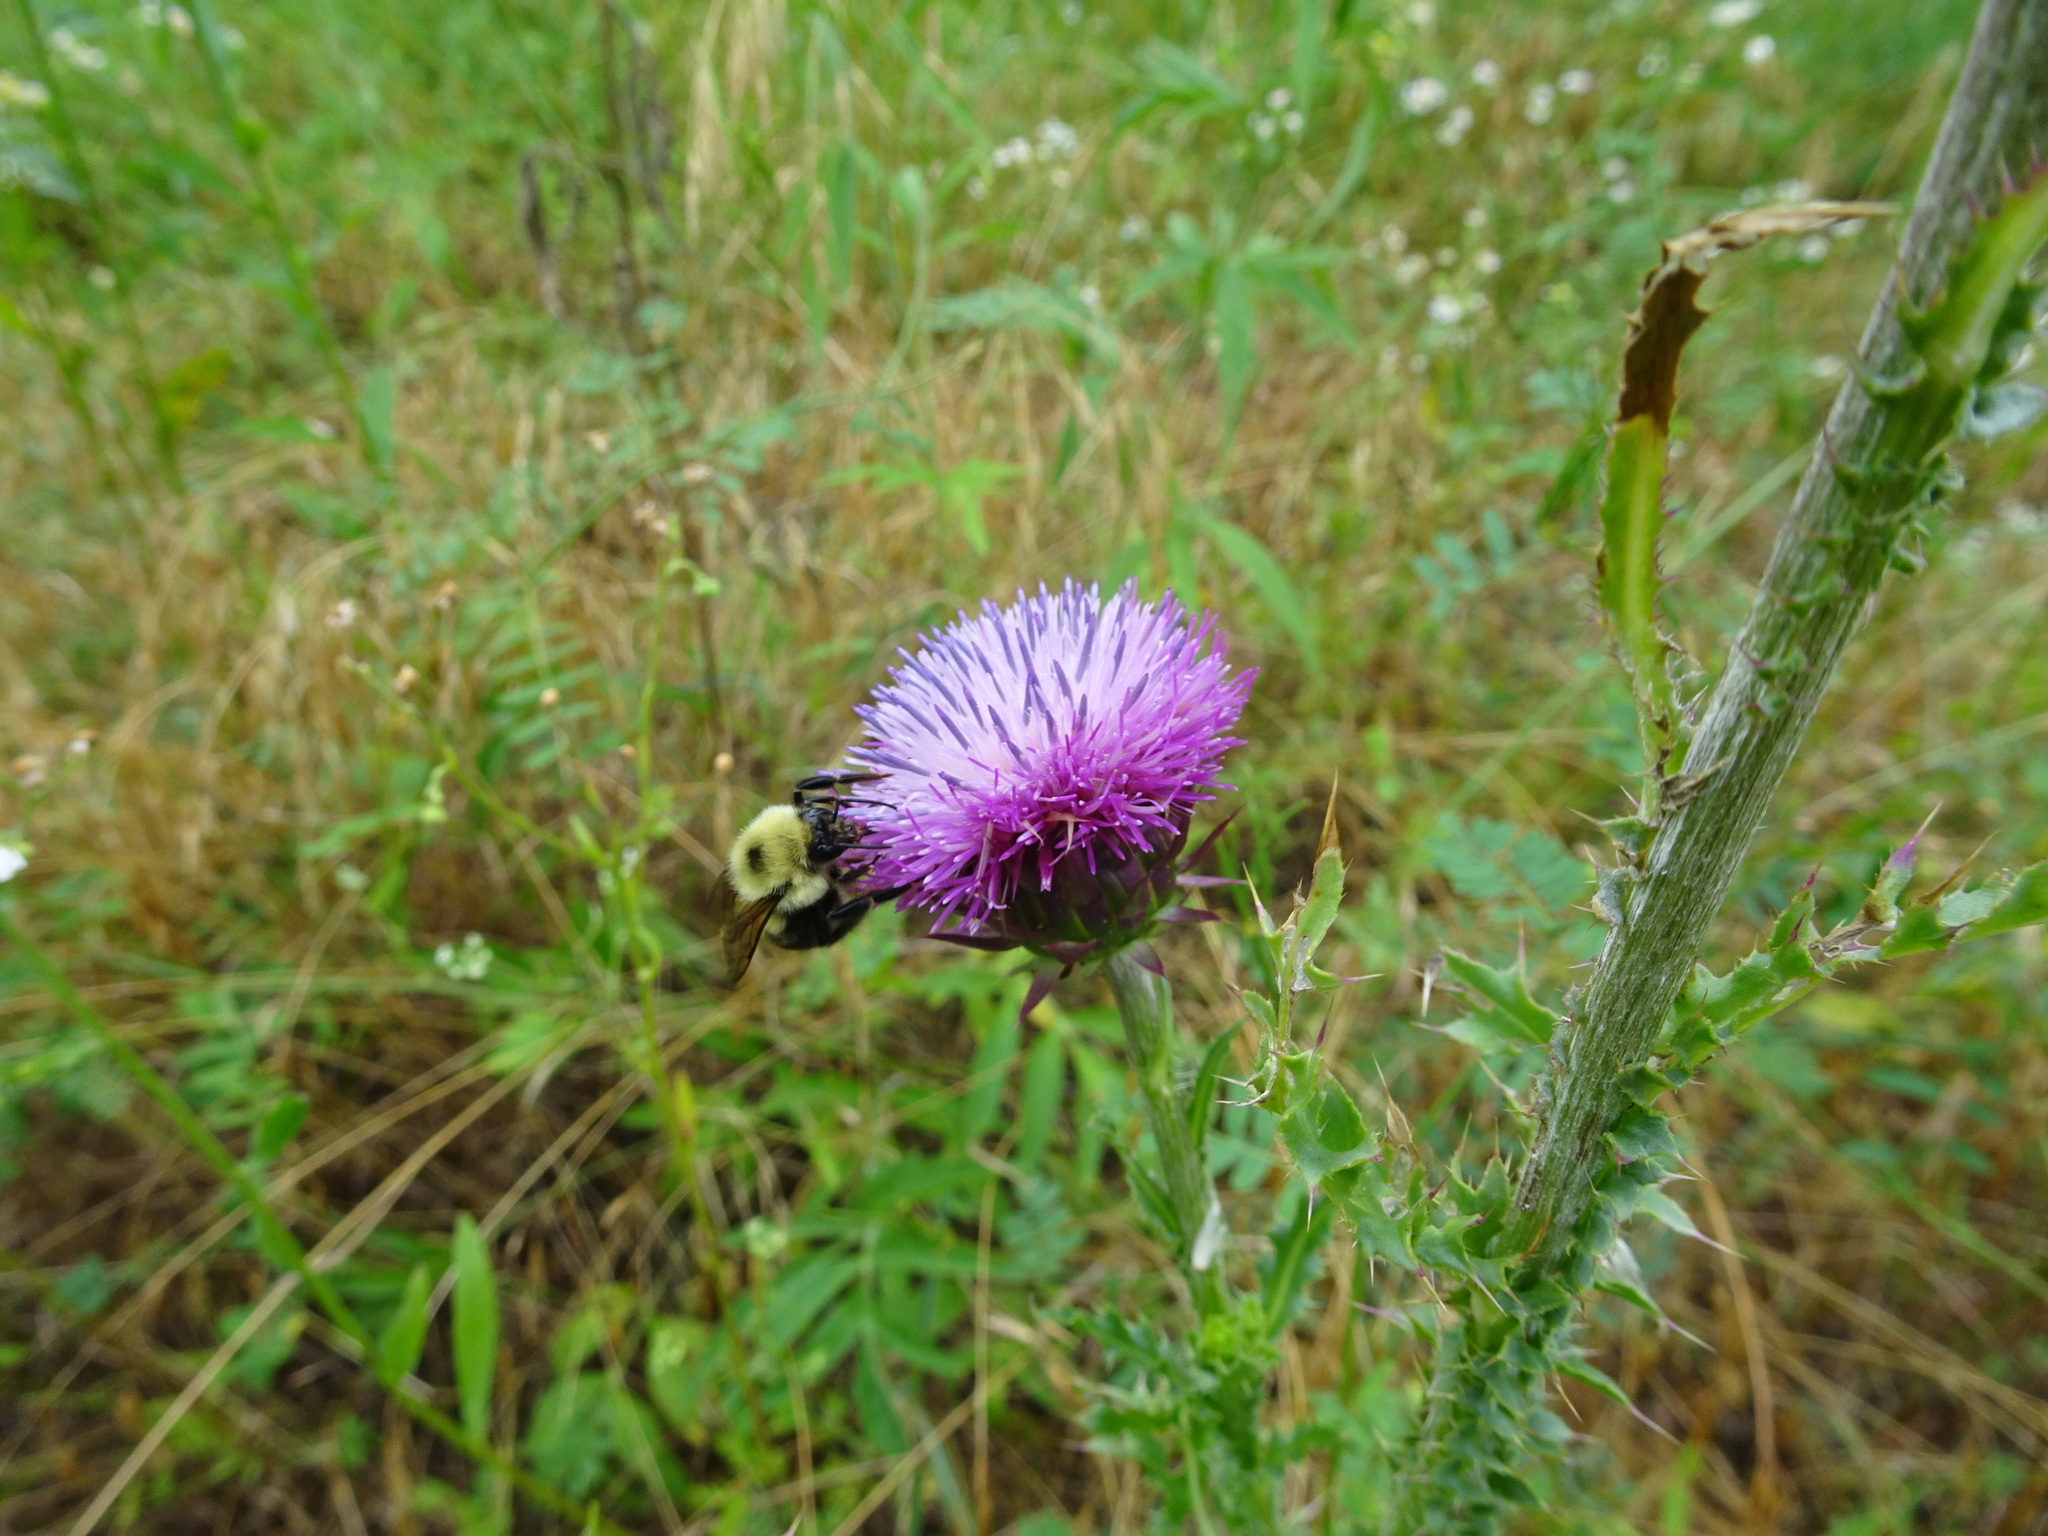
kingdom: Plantae
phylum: Tracheophyta
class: Magnoliopsida
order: Asterales
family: Asteraceae
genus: Carduus
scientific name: Carduus nutans
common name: Musk thistle
